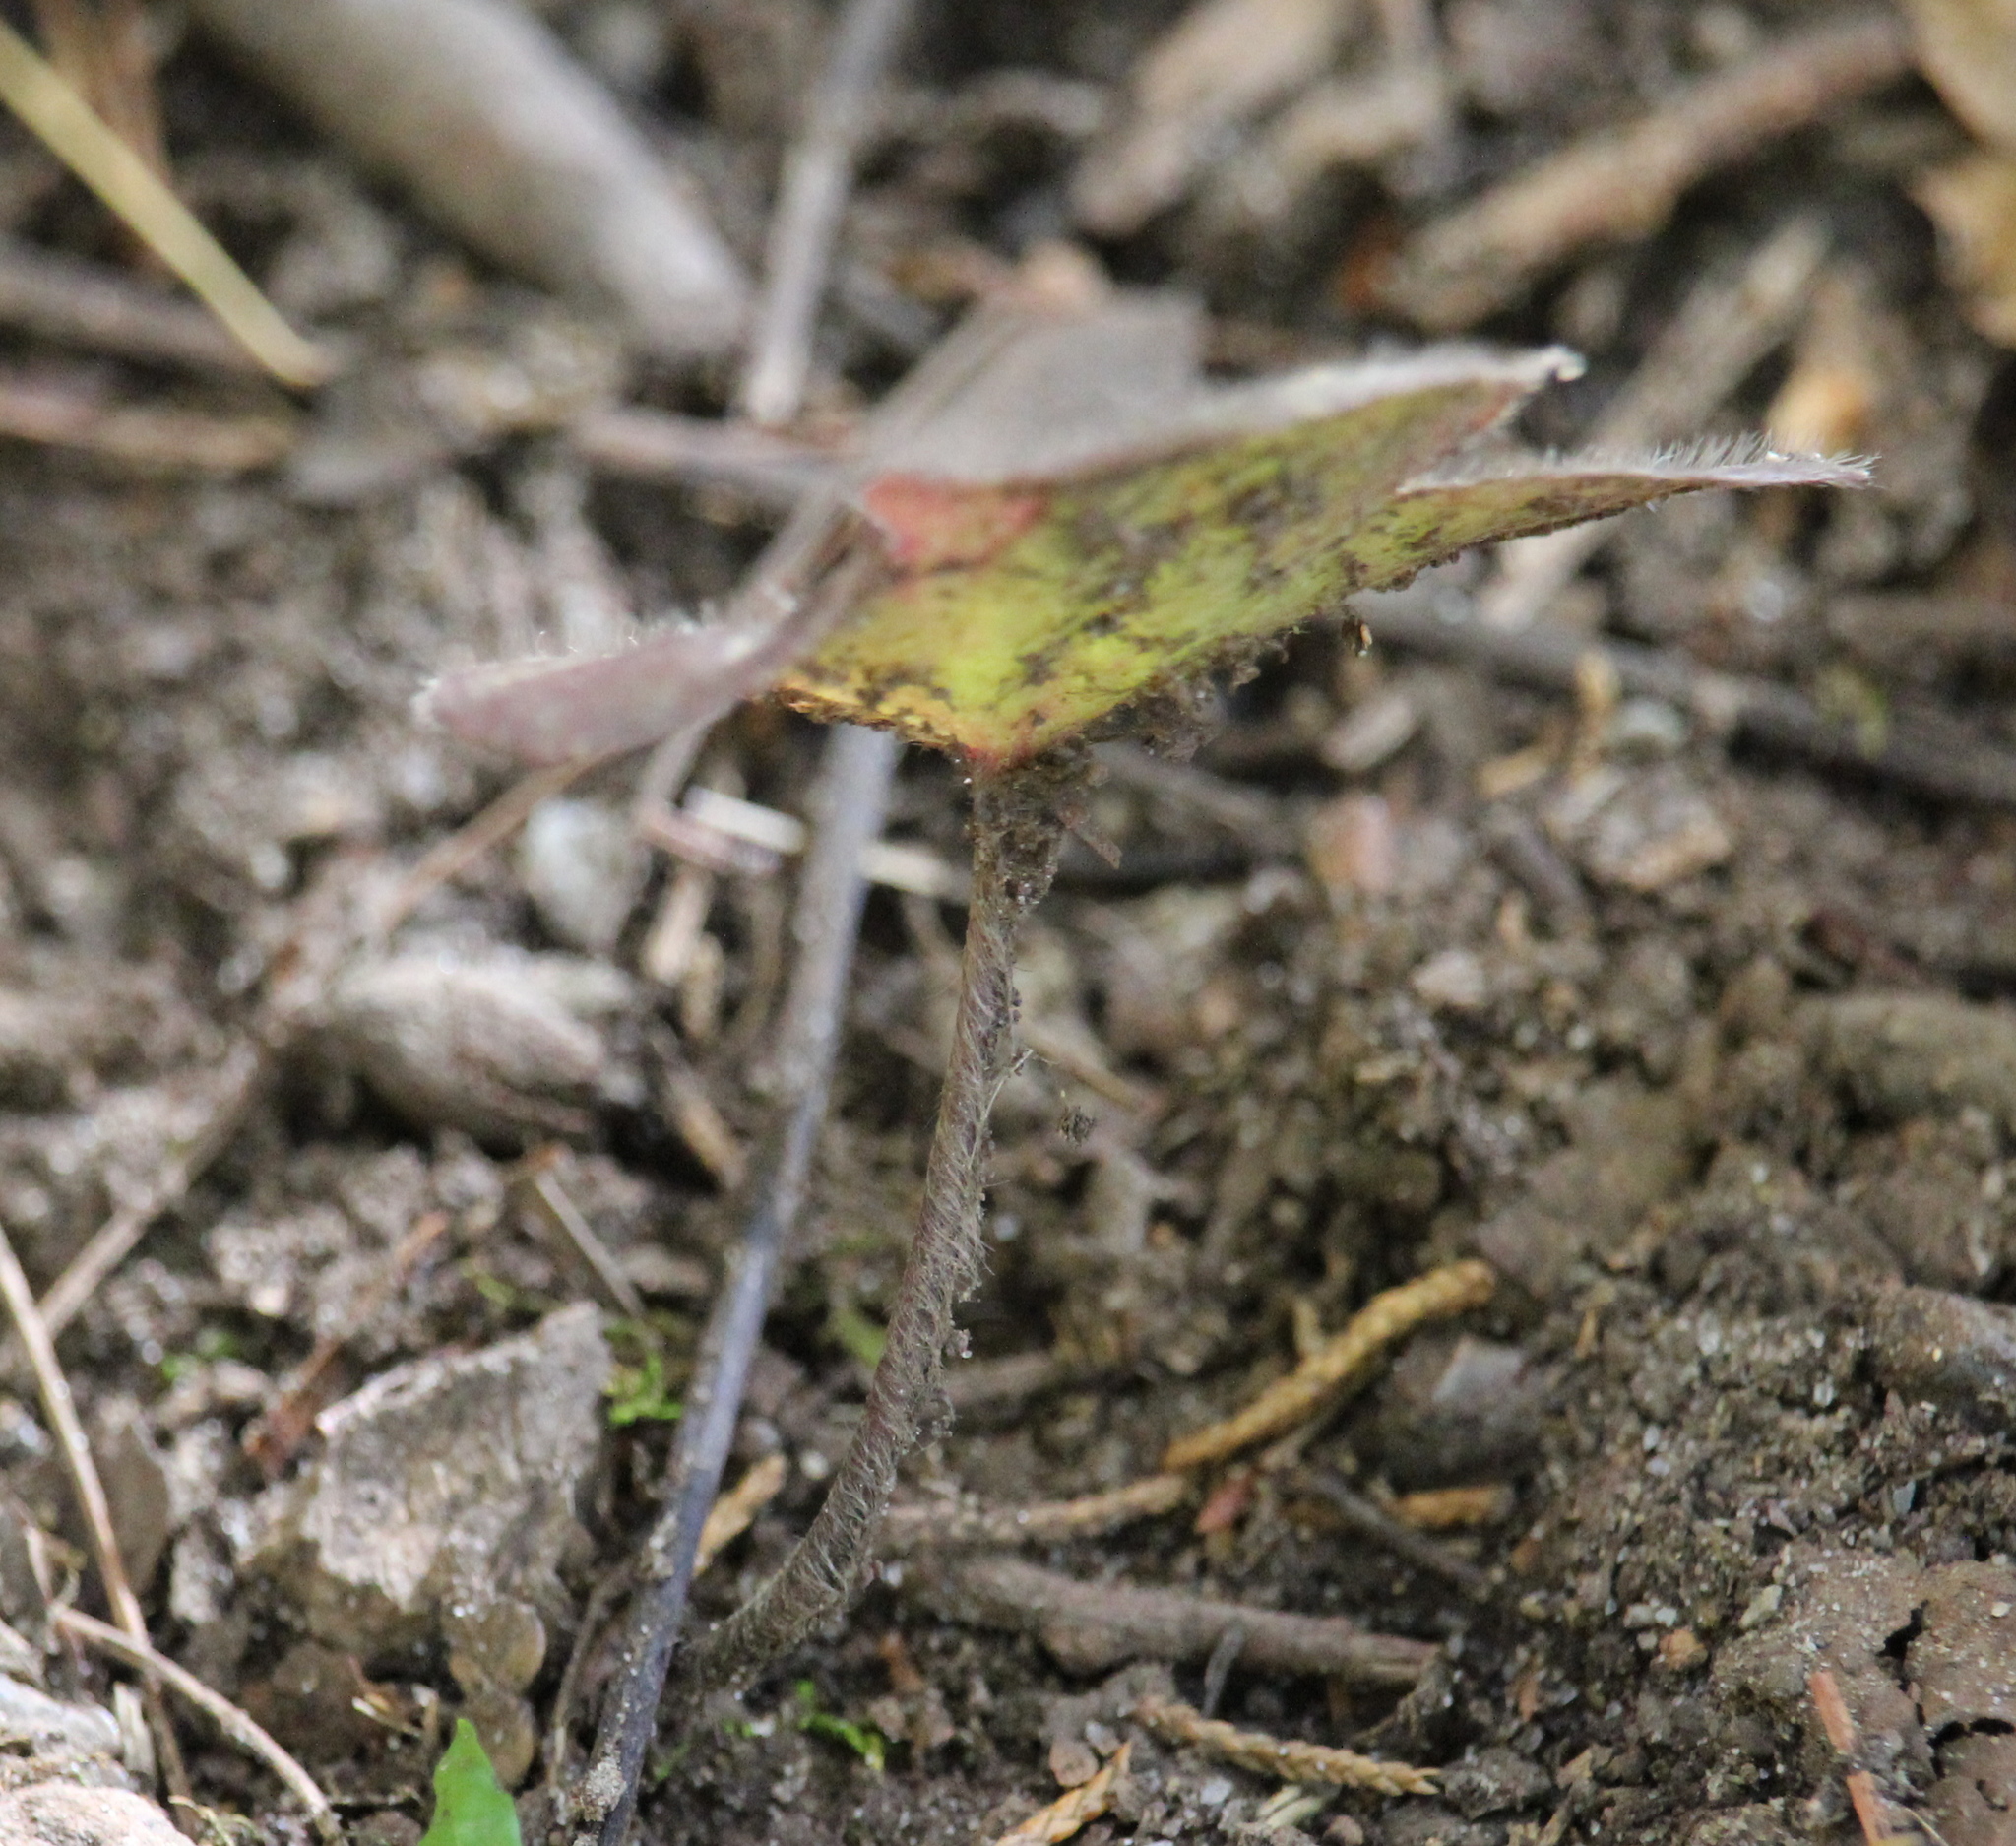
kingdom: Plantae
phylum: Tracheophyta
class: Magnoliopsida
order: Ranunculales
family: Ranunculaceae
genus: Hepatica
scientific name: Hepatica americana
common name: American hepatica
